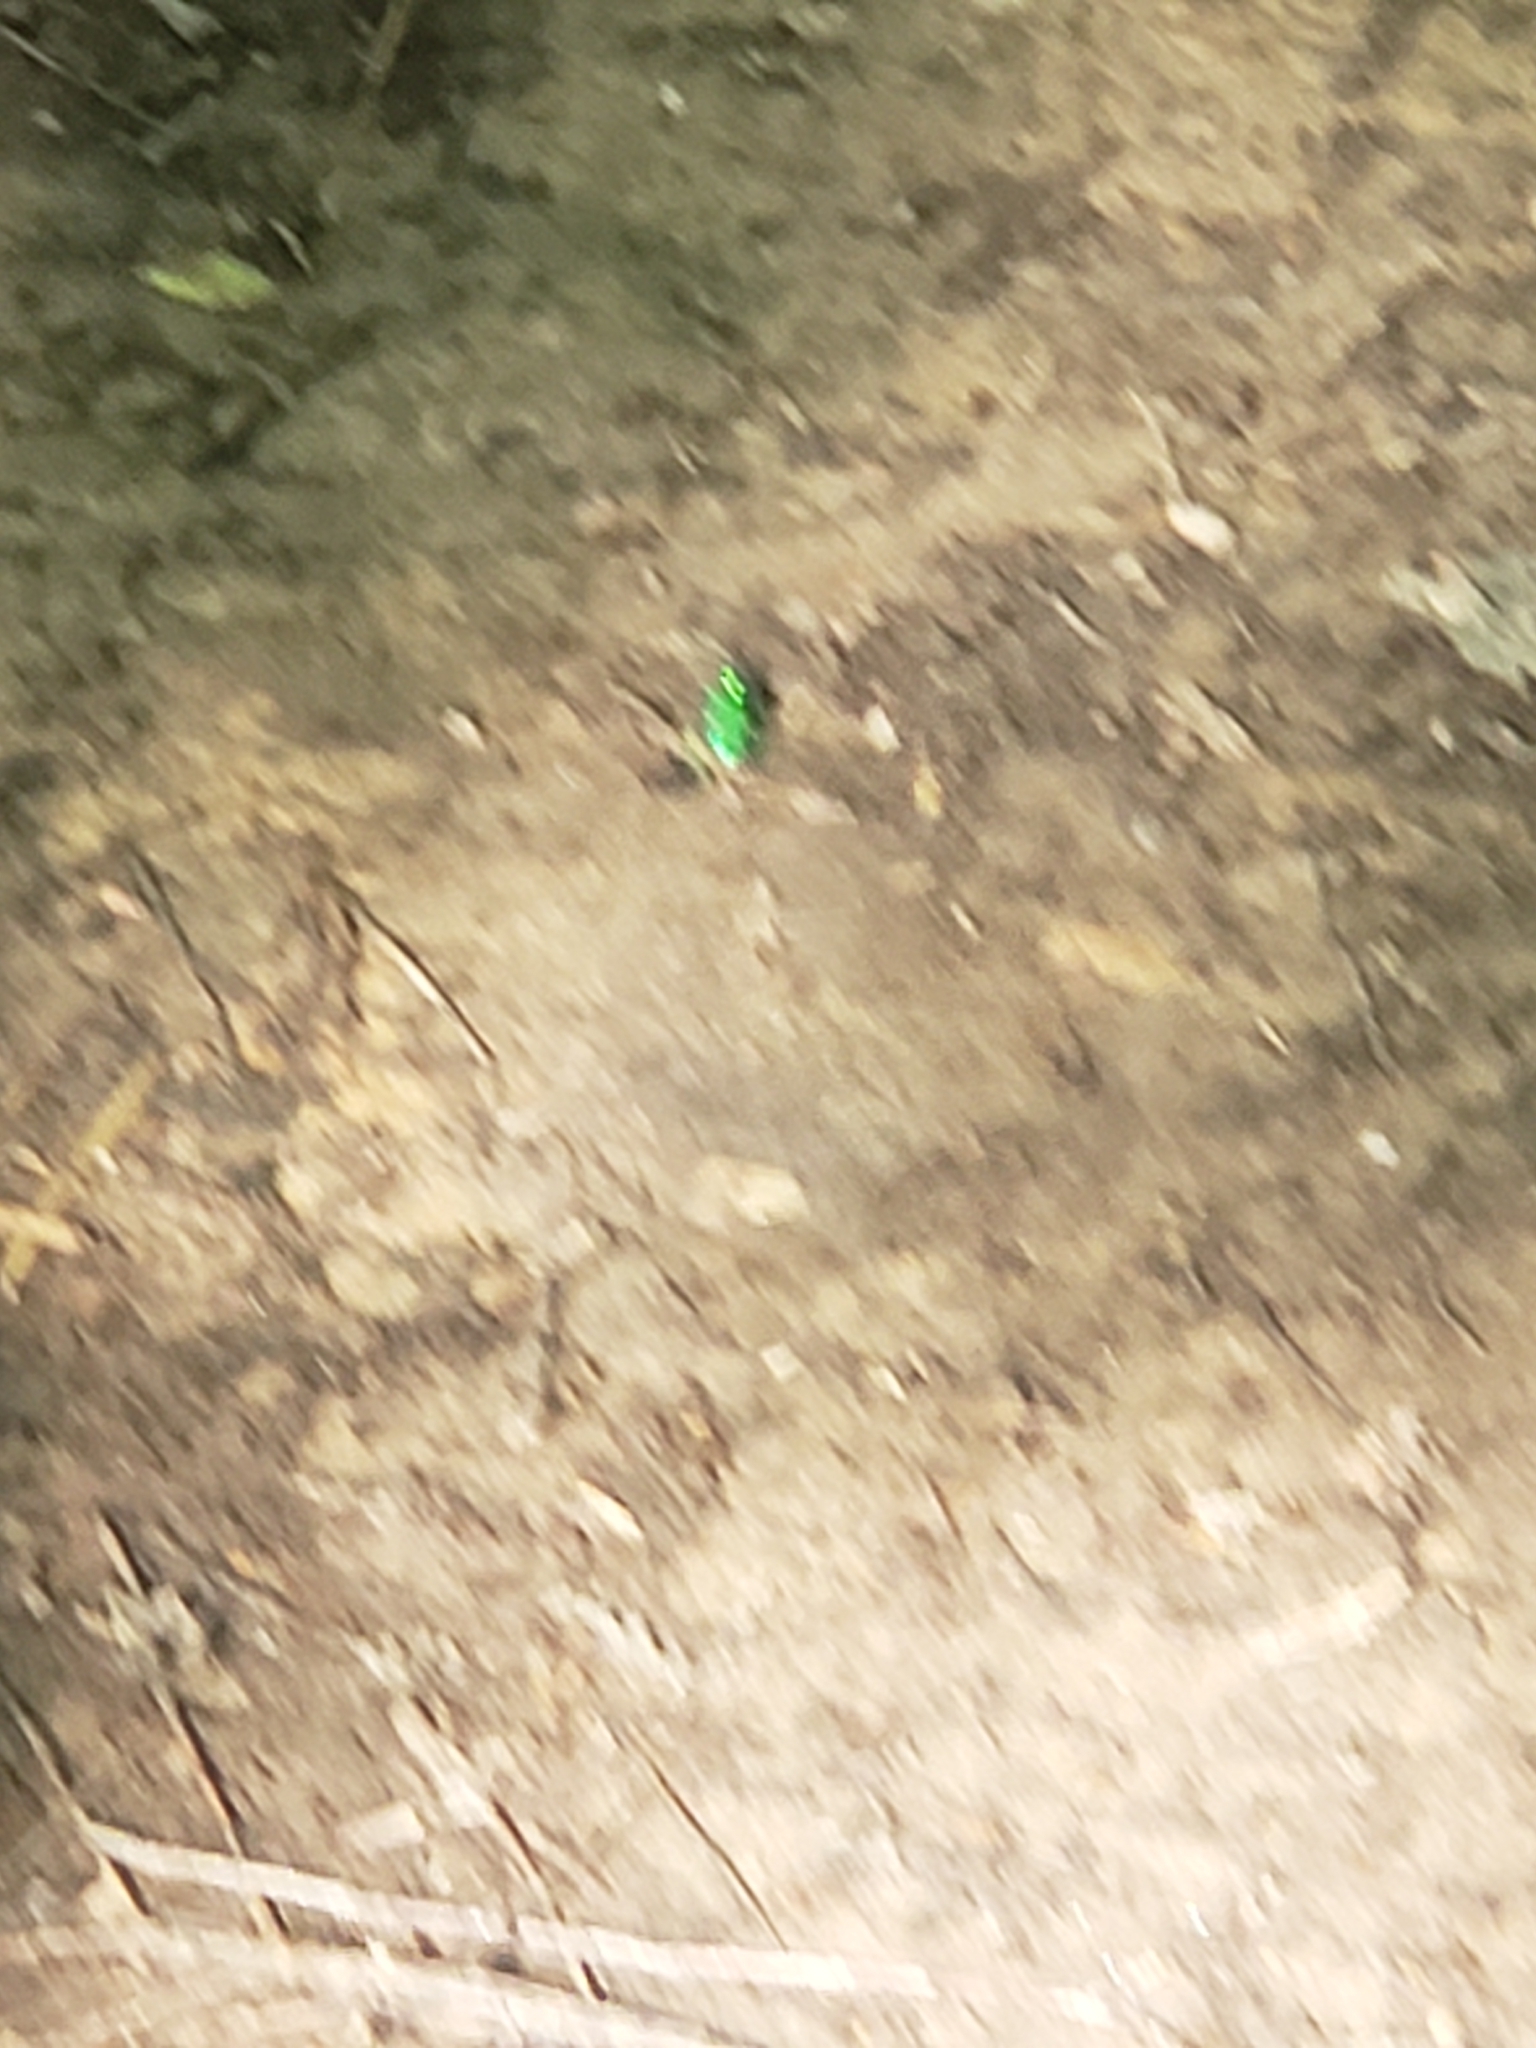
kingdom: Animalia
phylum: Arthropoda
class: Insecta
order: Coleoptera
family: Carabidae
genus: Cicindela
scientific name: Cicindela sexguttata
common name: Six-spotted tiger beetle
